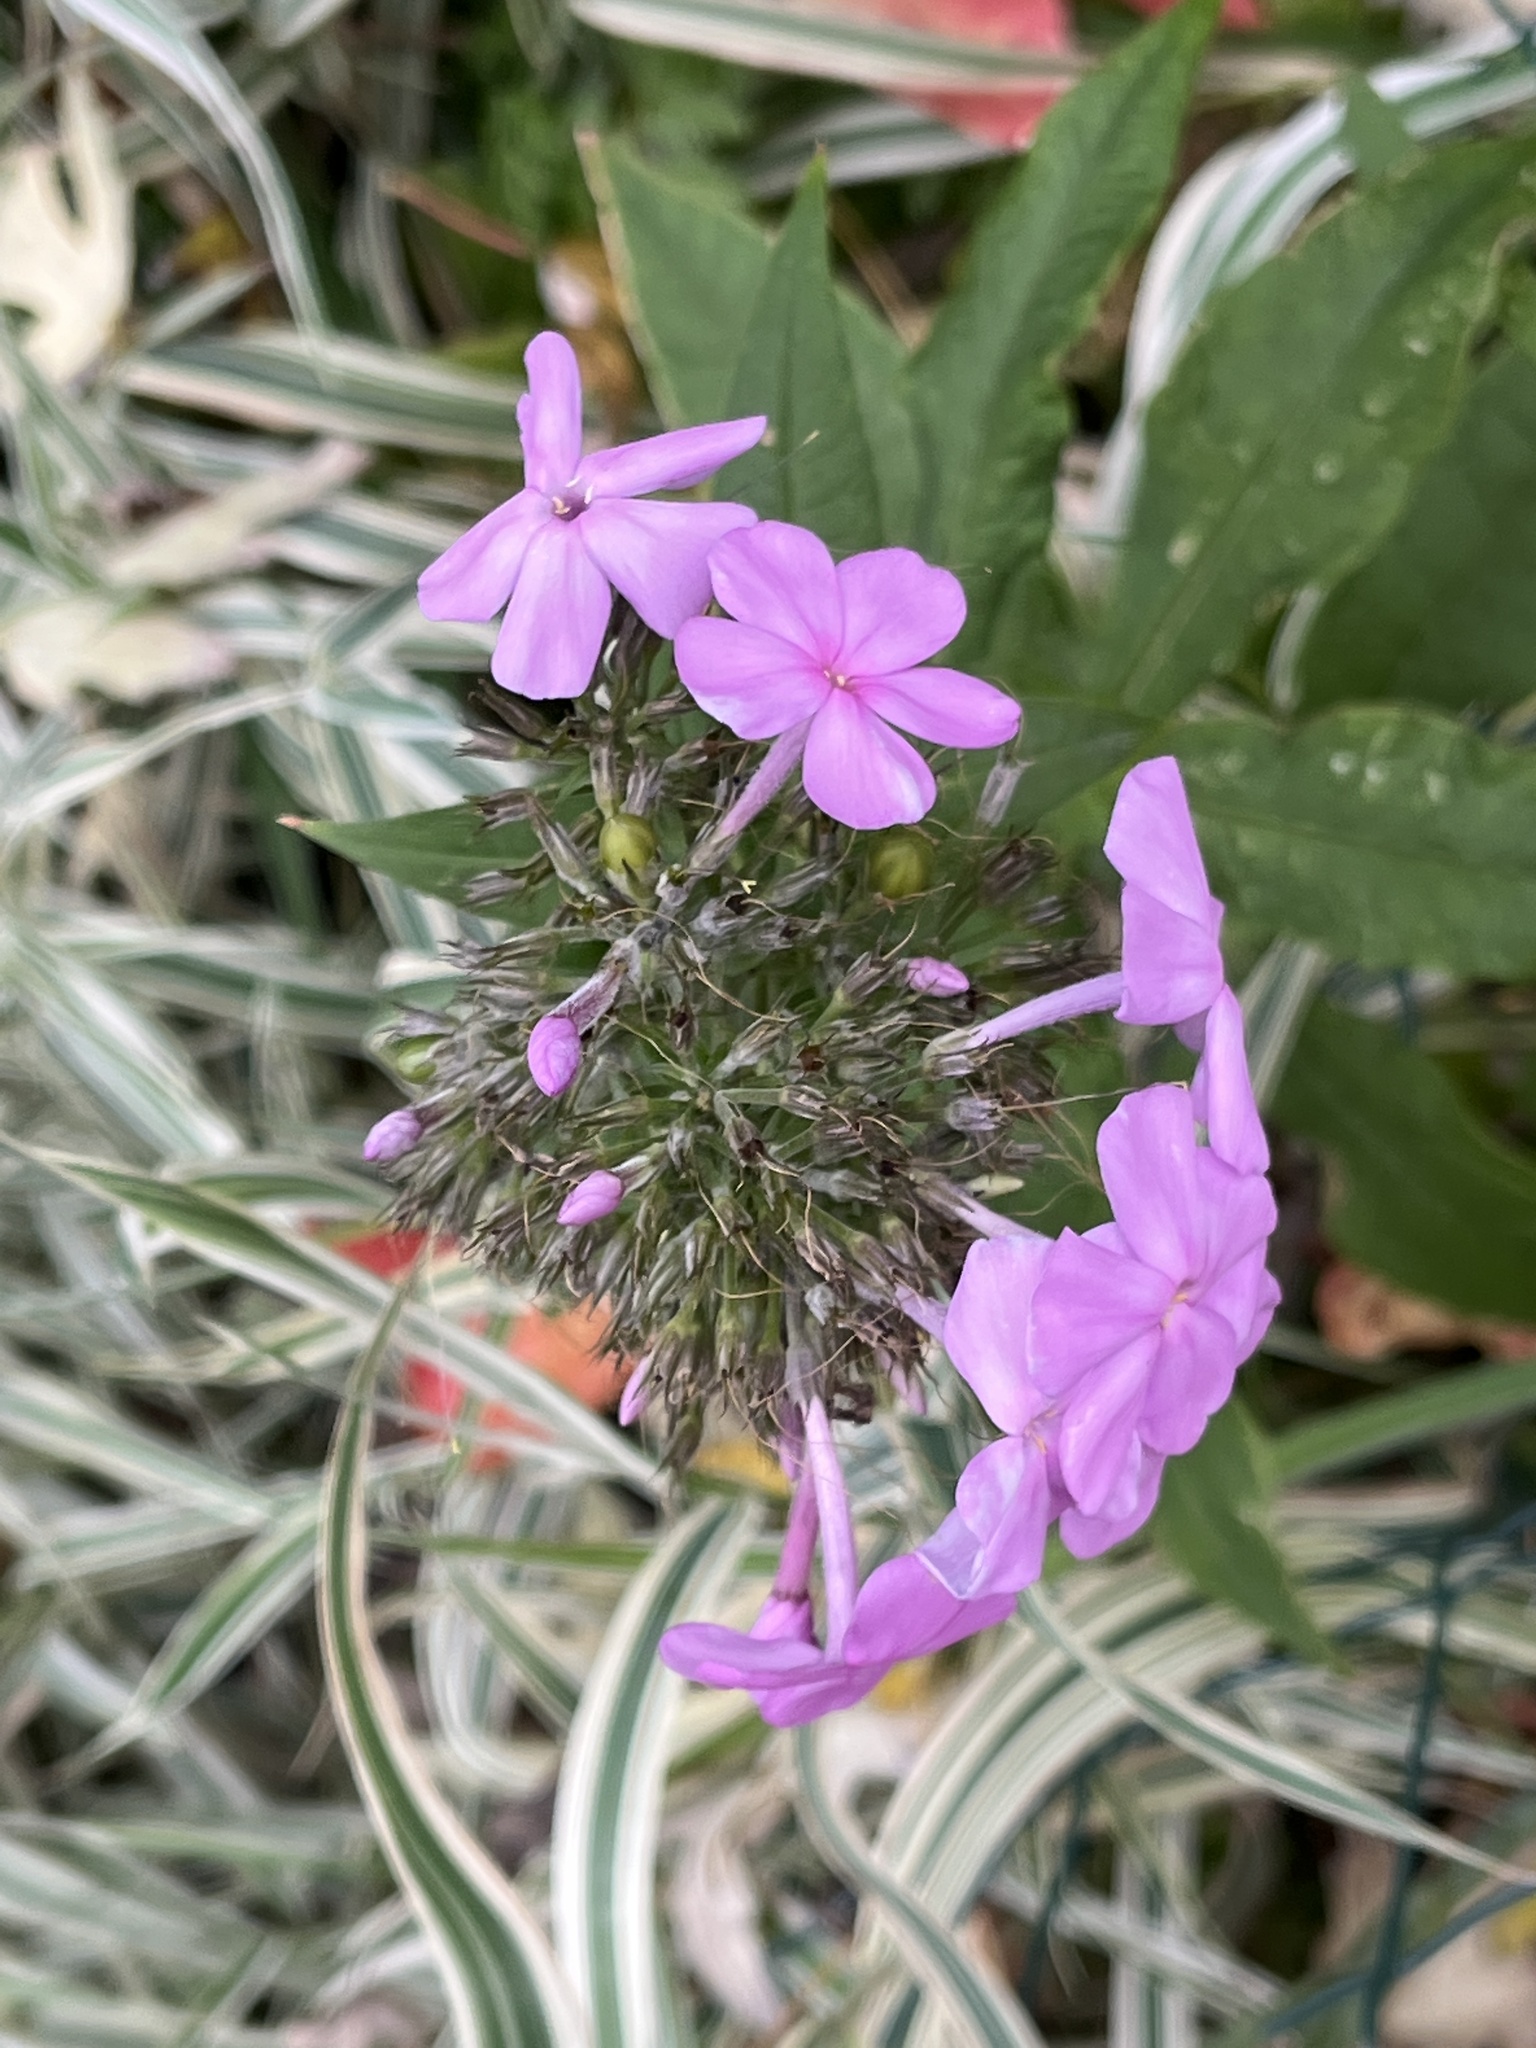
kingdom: Plantae
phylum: Tracheophyta
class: Magnoliopsida
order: Ericales
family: Polemoniaceae
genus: Phlox
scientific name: Phlox paniculata
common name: Fall phlox
